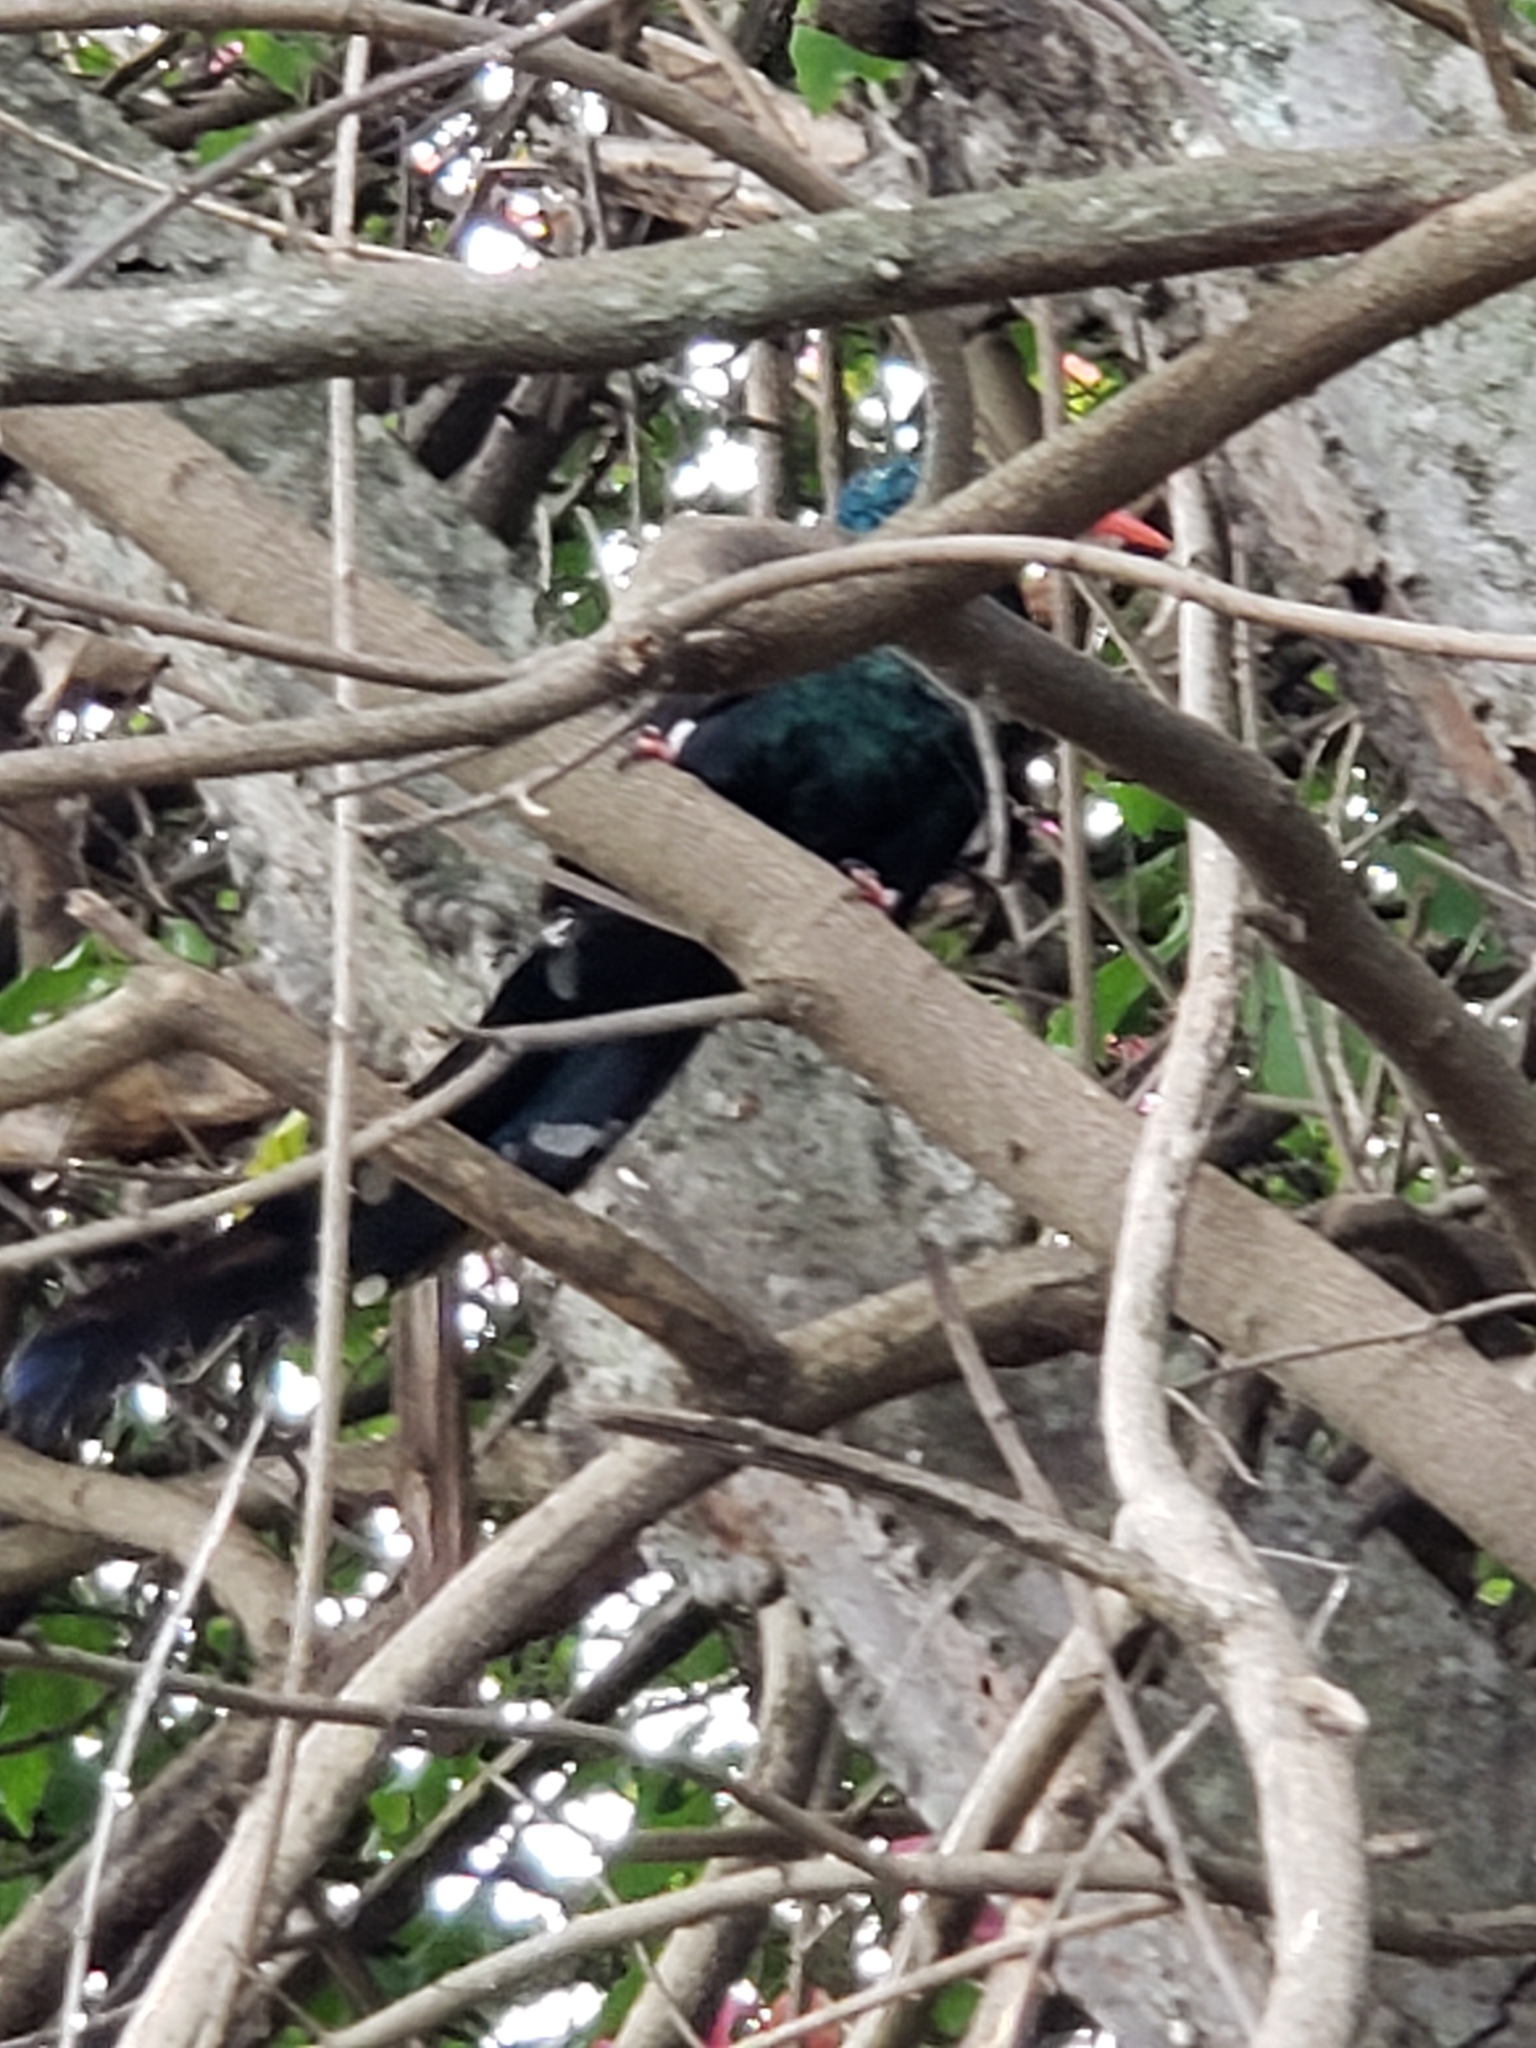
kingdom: Animalia
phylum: Chordata
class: Aves
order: Bucerotiformes
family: Phoeniculidae
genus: Phoeniculus
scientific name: Phoeniculus purpureus
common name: Green woodhoopoe
